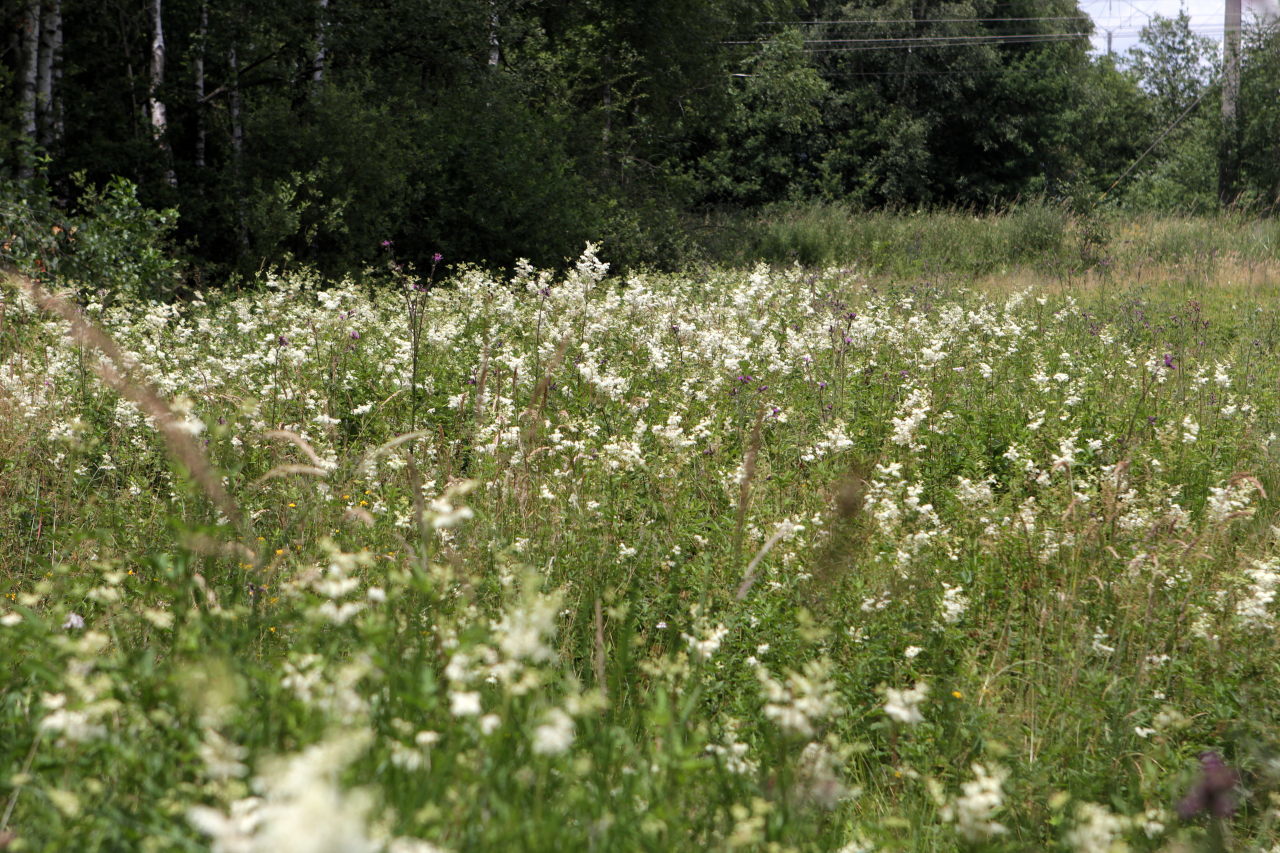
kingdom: Plantae
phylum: Tracheophyta
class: Magnoliopsida
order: Rosales
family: Rosaceae
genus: Filipendula
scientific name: Filipendula ulmaria
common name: Meadowsweet
